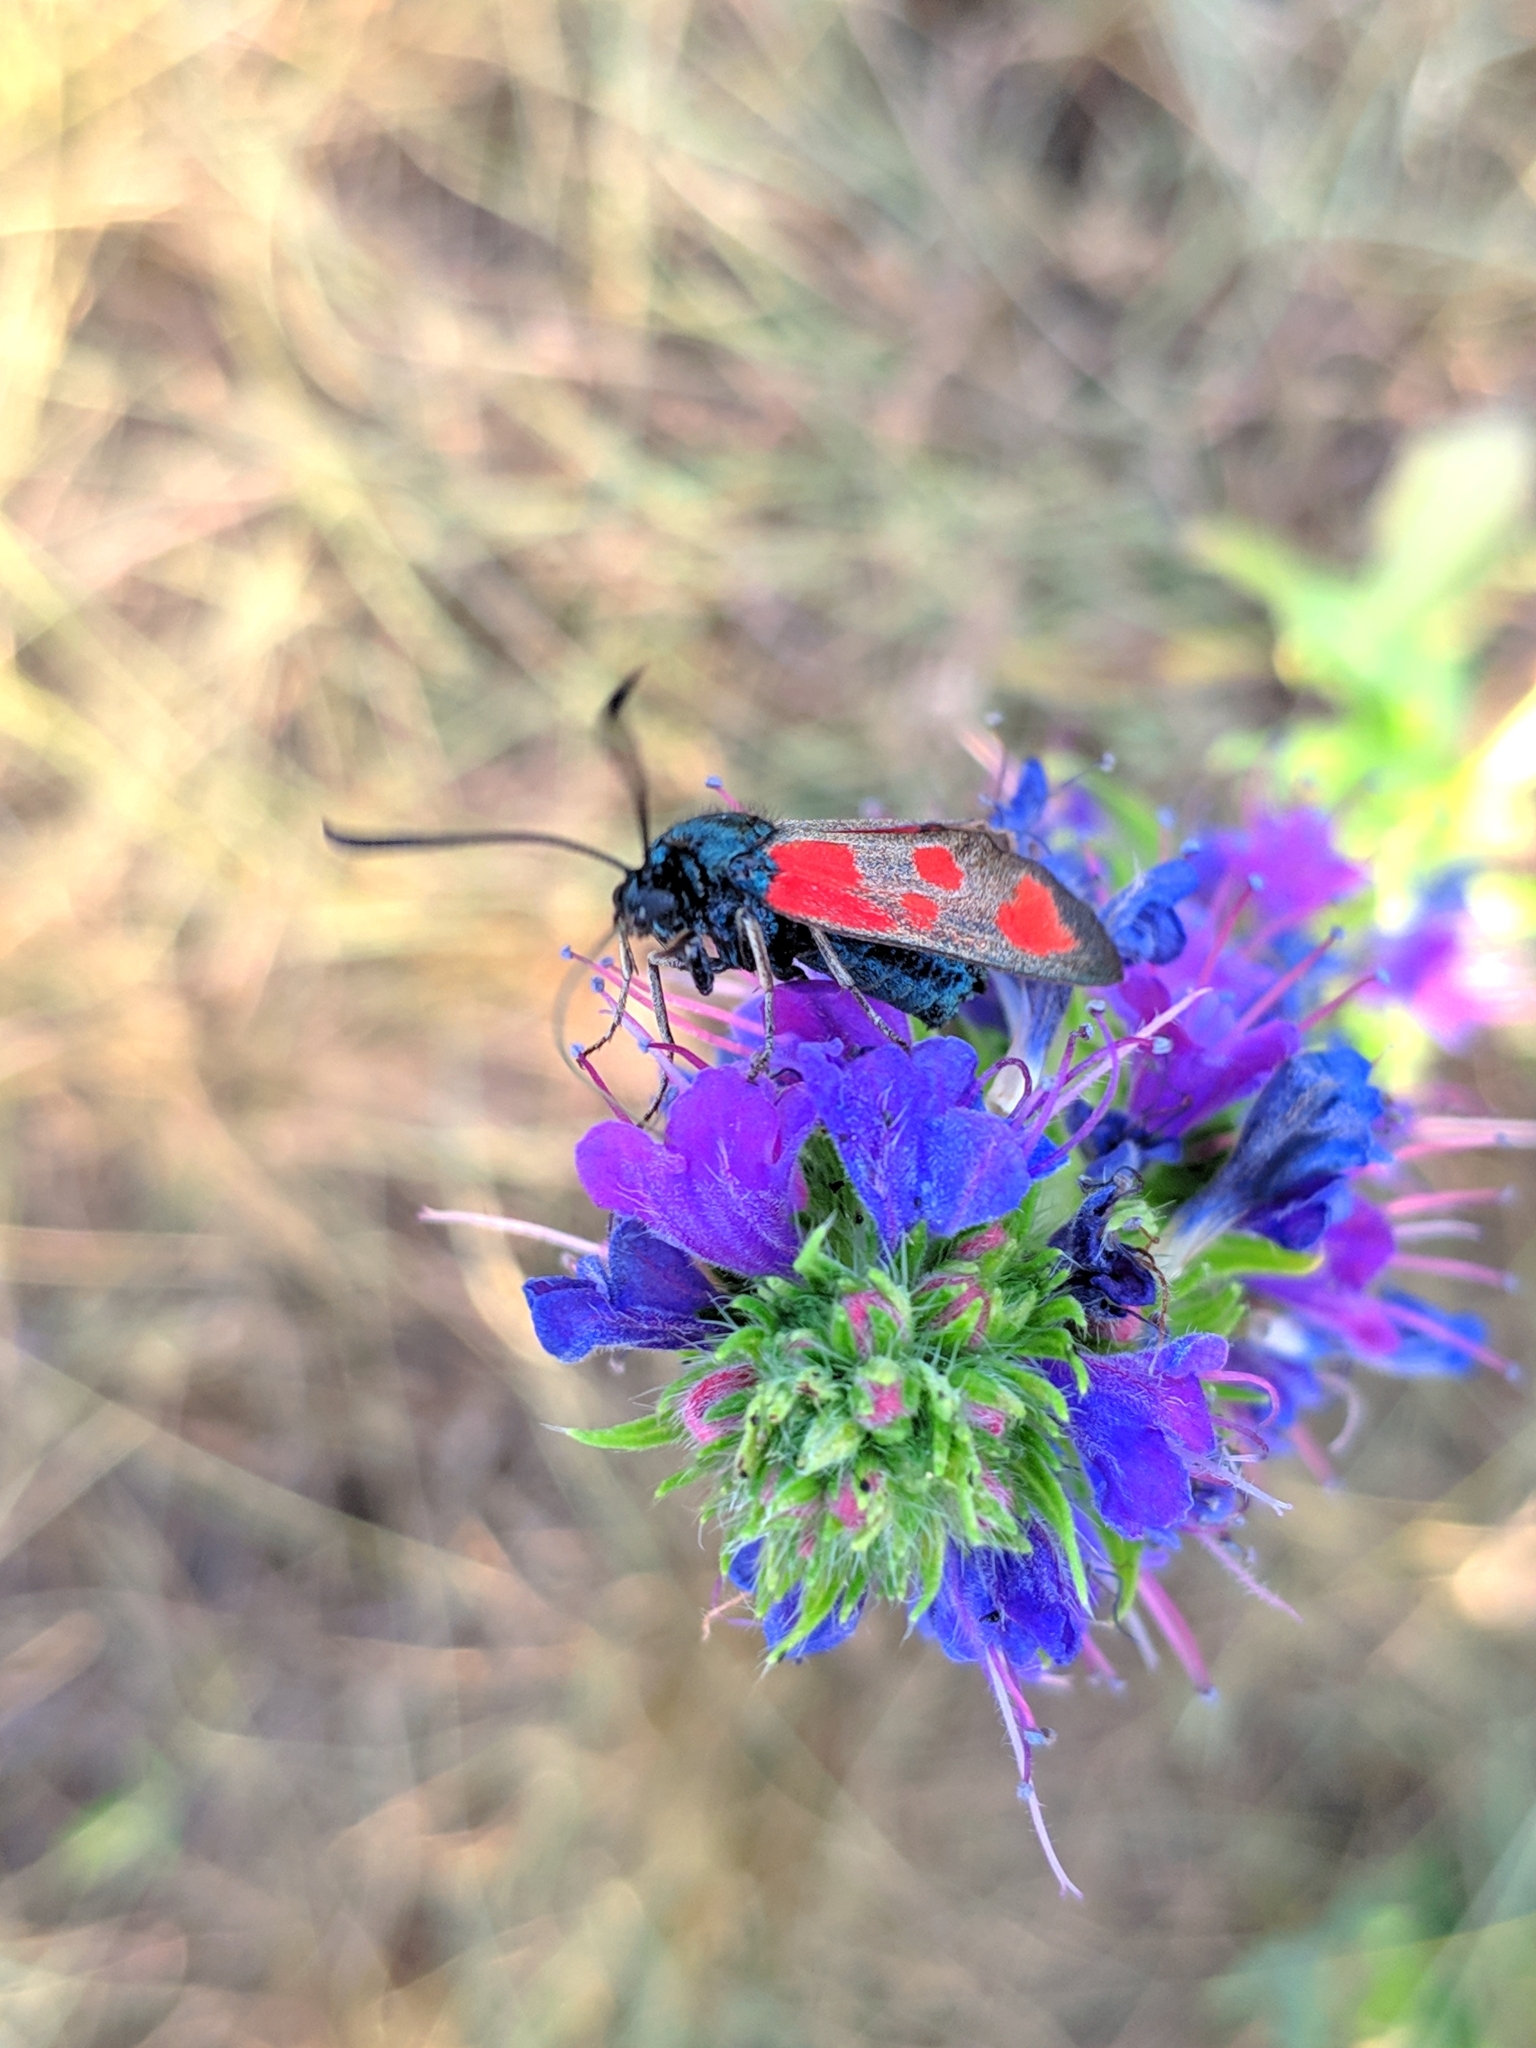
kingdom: Animalia
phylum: Arthropoda
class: Insecta
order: Lepidoptera
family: Zygaenidae
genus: Zygaena
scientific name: Zygaena loti
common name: Slender scotch burnet
